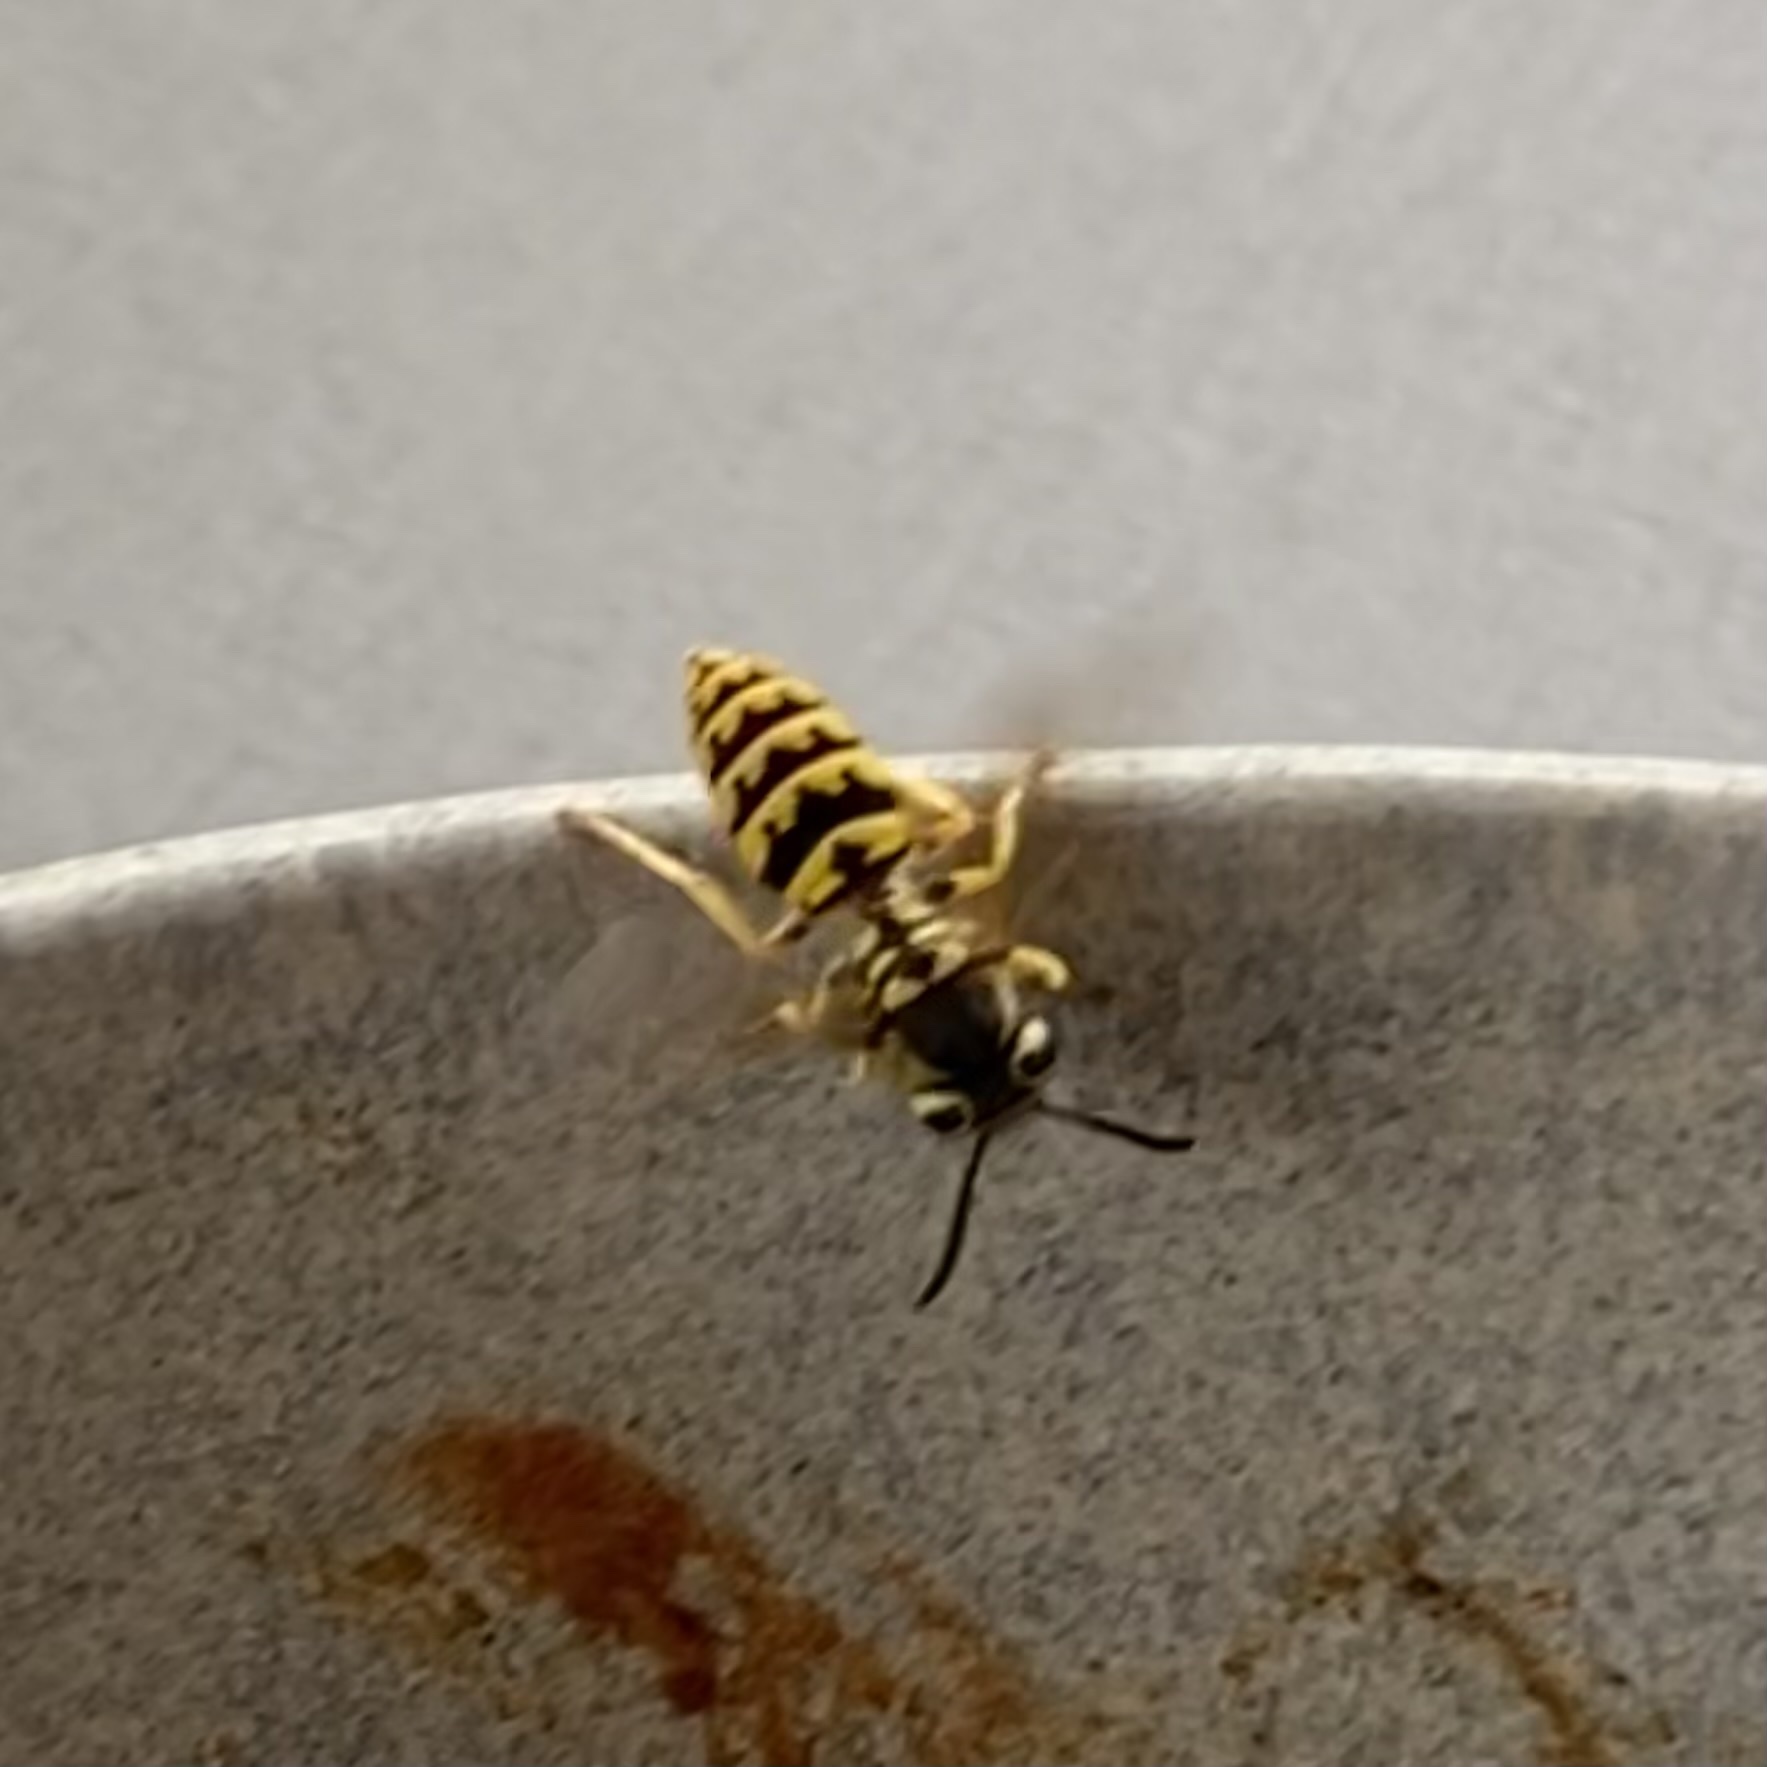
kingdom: Animalia
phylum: Arthropoda
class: Insecta
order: Hymenoptera
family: Vespidae
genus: Vespula
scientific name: Vespula pensylvanica
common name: Western yellowjacket
